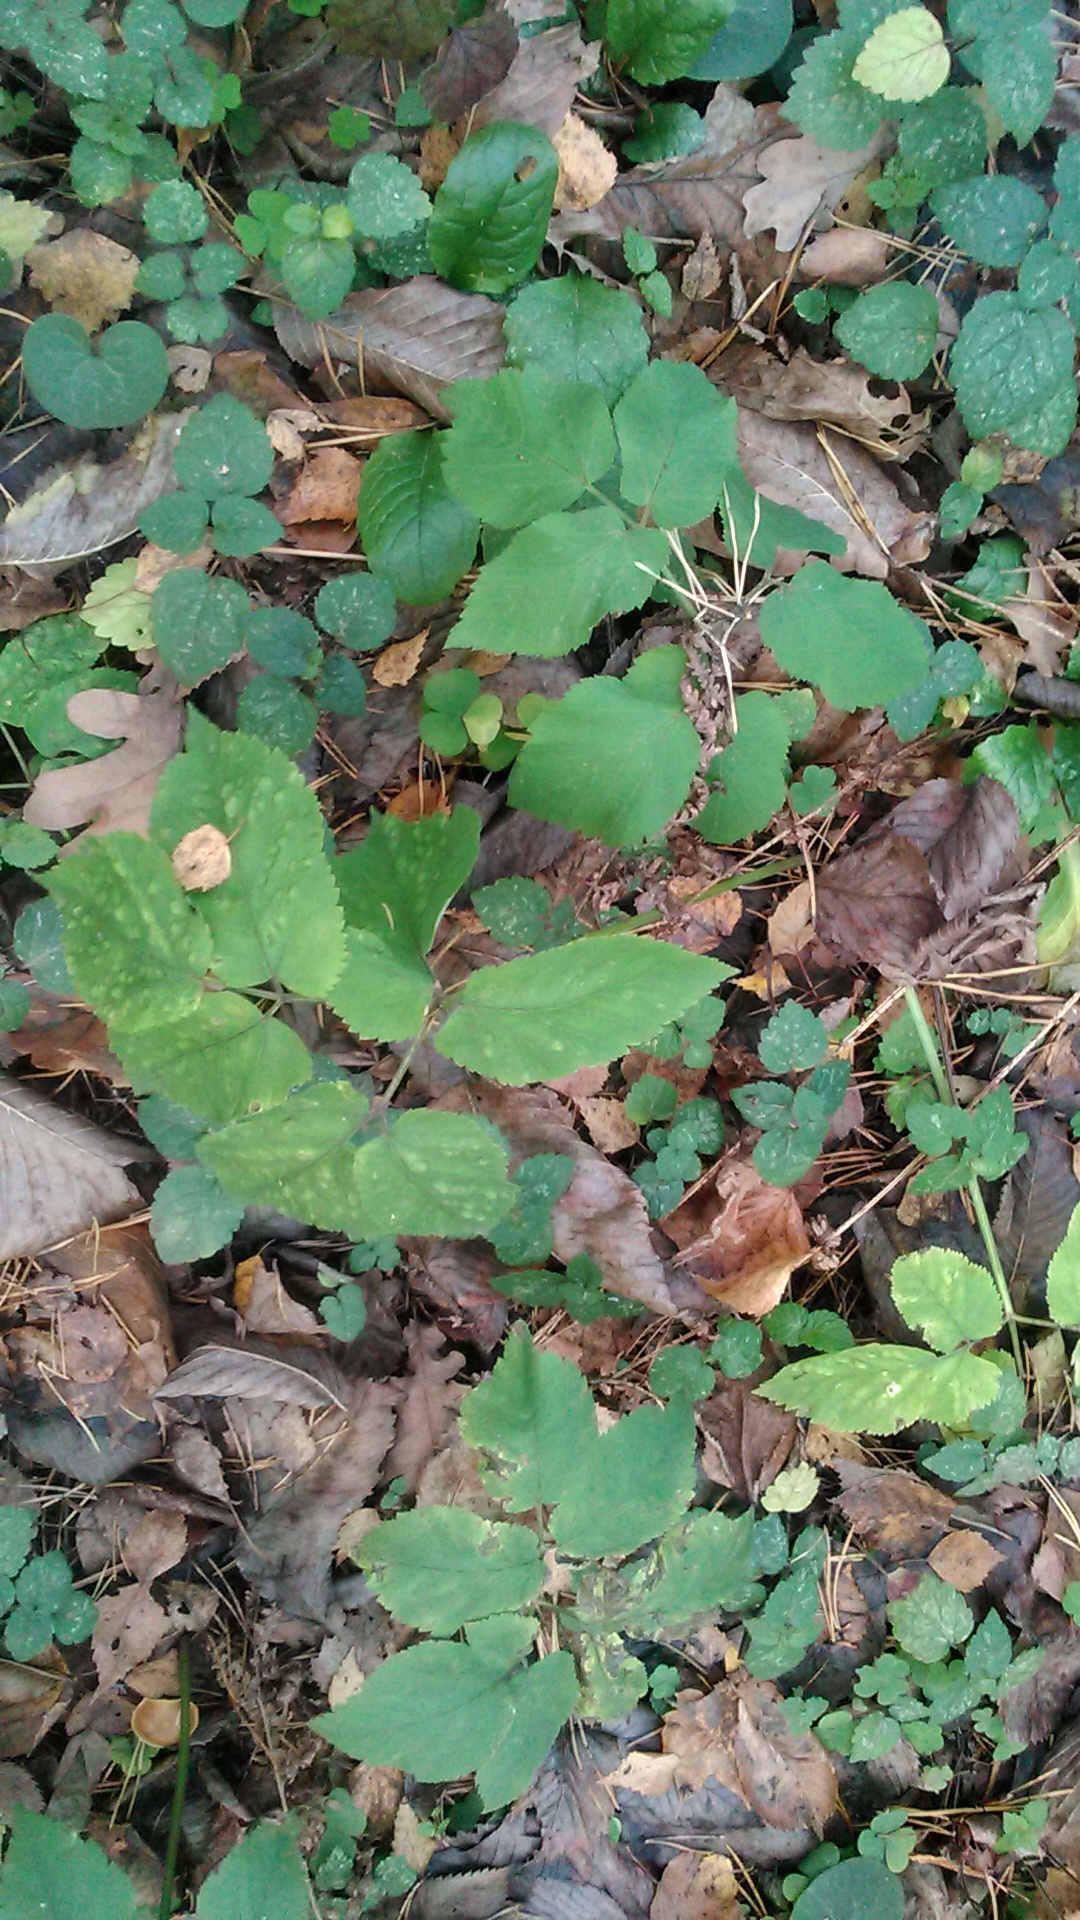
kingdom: Plantae
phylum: Tracheophyta
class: Magnoliopsida
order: Apiales
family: Apiaceae
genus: Aegopodium
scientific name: Aegopodium podagraria
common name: Ground-elder
